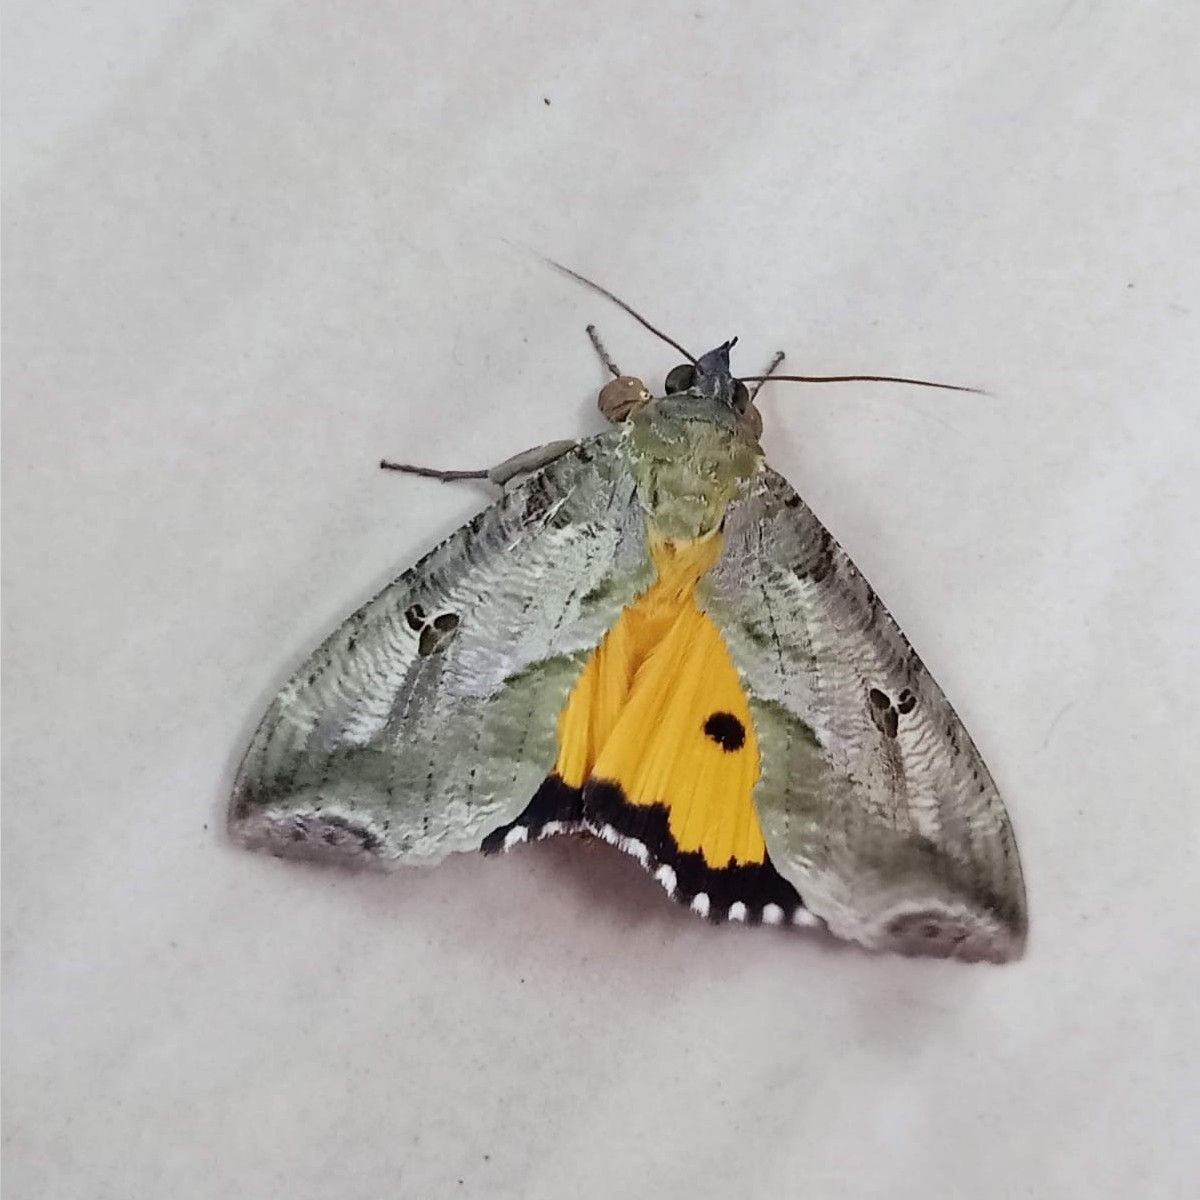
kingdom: Animalia
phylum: Arthropoda
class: Insecta
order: Lepidoptera
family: Erebidae
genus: Eudocima
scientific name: Eudocima materna
